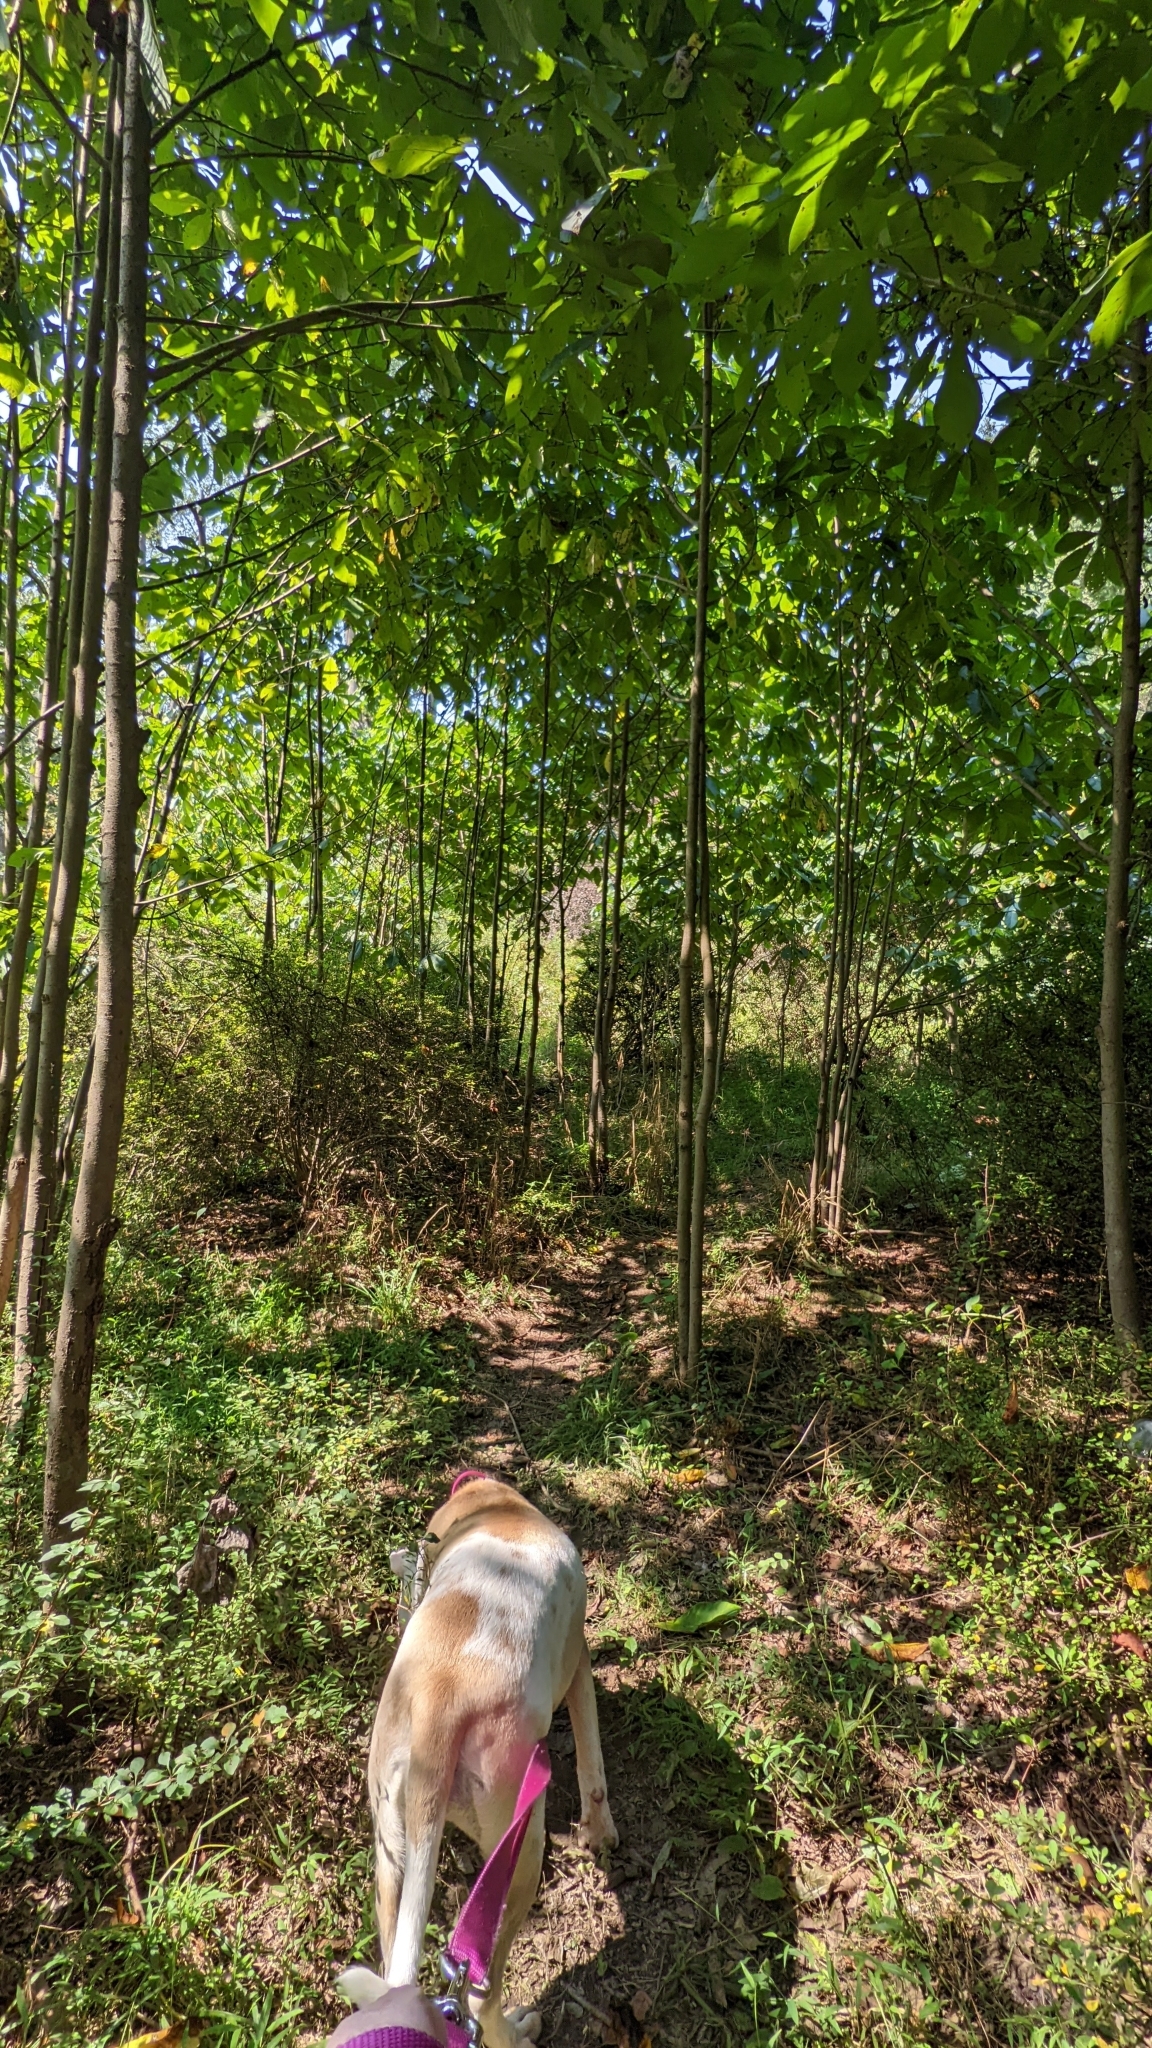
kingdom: Plantae
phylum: Tracheophyta
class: Magnoliopsida
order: Magnoliales
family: Annonaceae
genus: Asimina
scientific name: Asimina triloba
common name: Dog-banana
